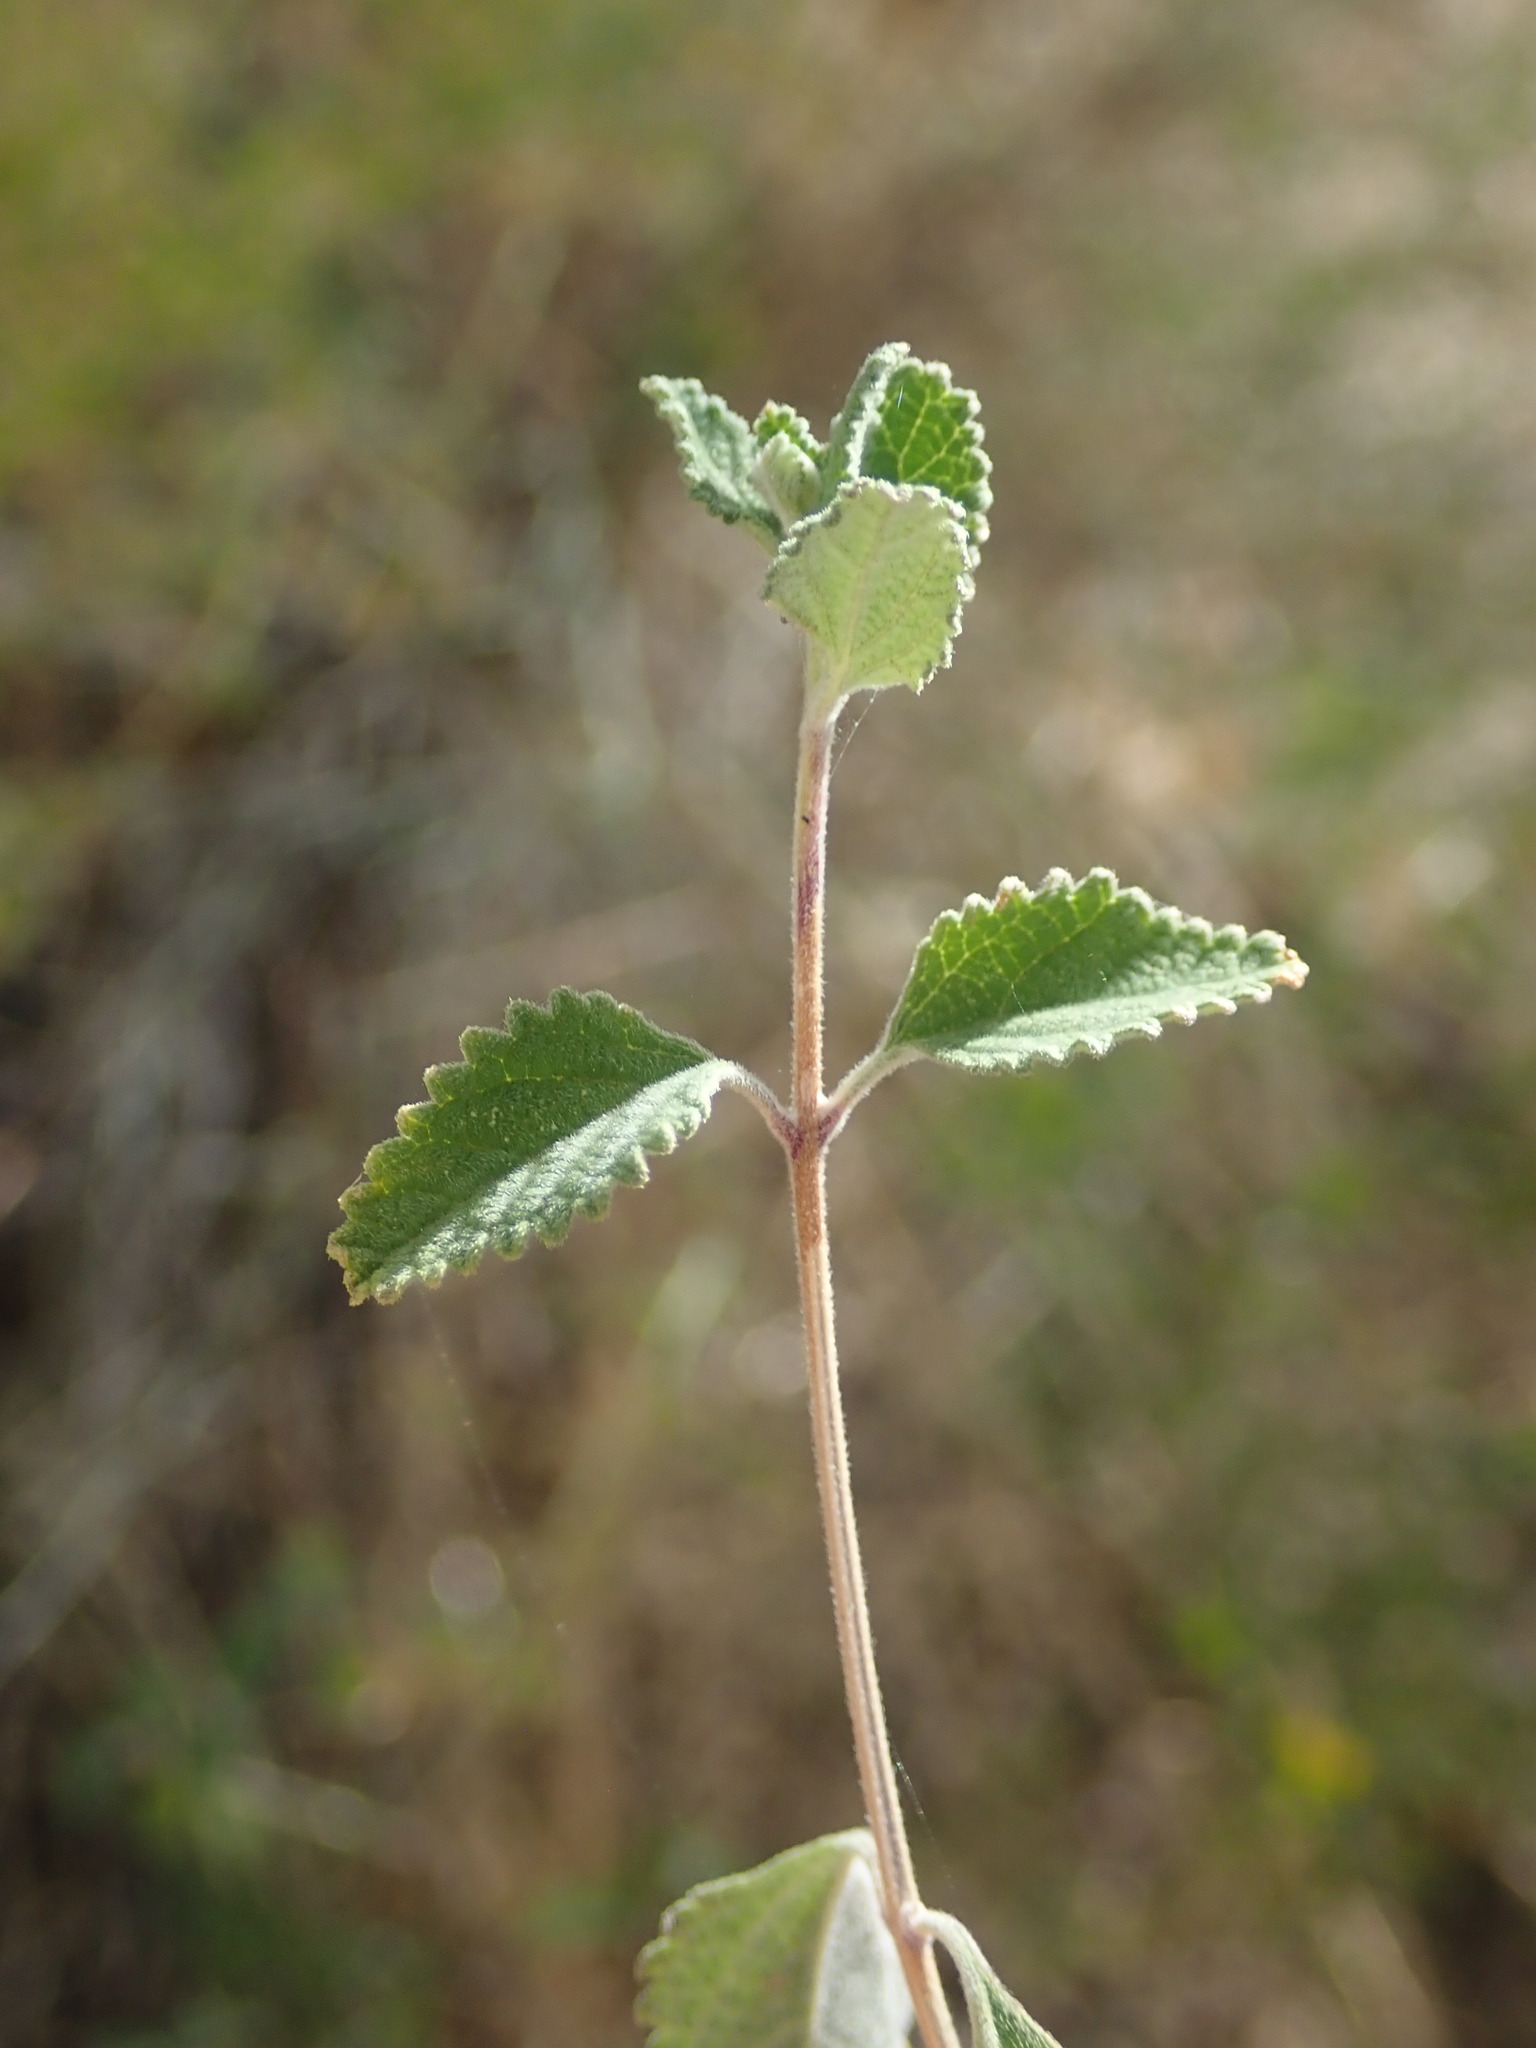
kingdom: Plantae
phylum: Tracheophyta
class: Magnoliopsida
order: Lamiales
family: Verbenaceae
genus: Aloysia
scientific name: Aloysia wrightii
